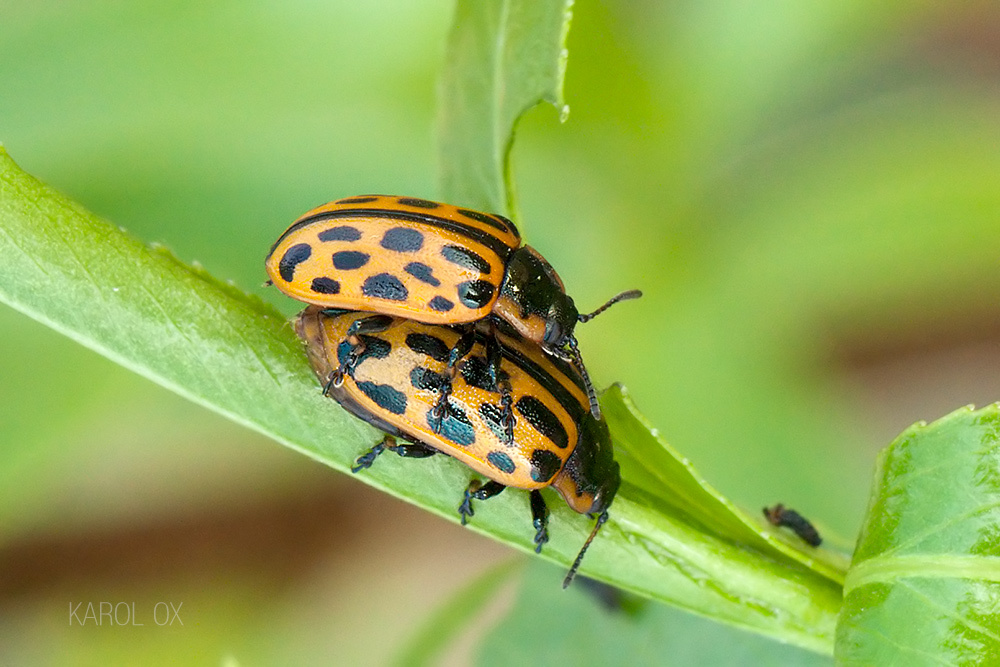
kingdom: Animalia
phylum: Arthropoda
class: Insecta
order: Coleoptera
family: Chrysomelidae
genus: Chrysomela
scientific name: Chrysomela vigintipunctata
